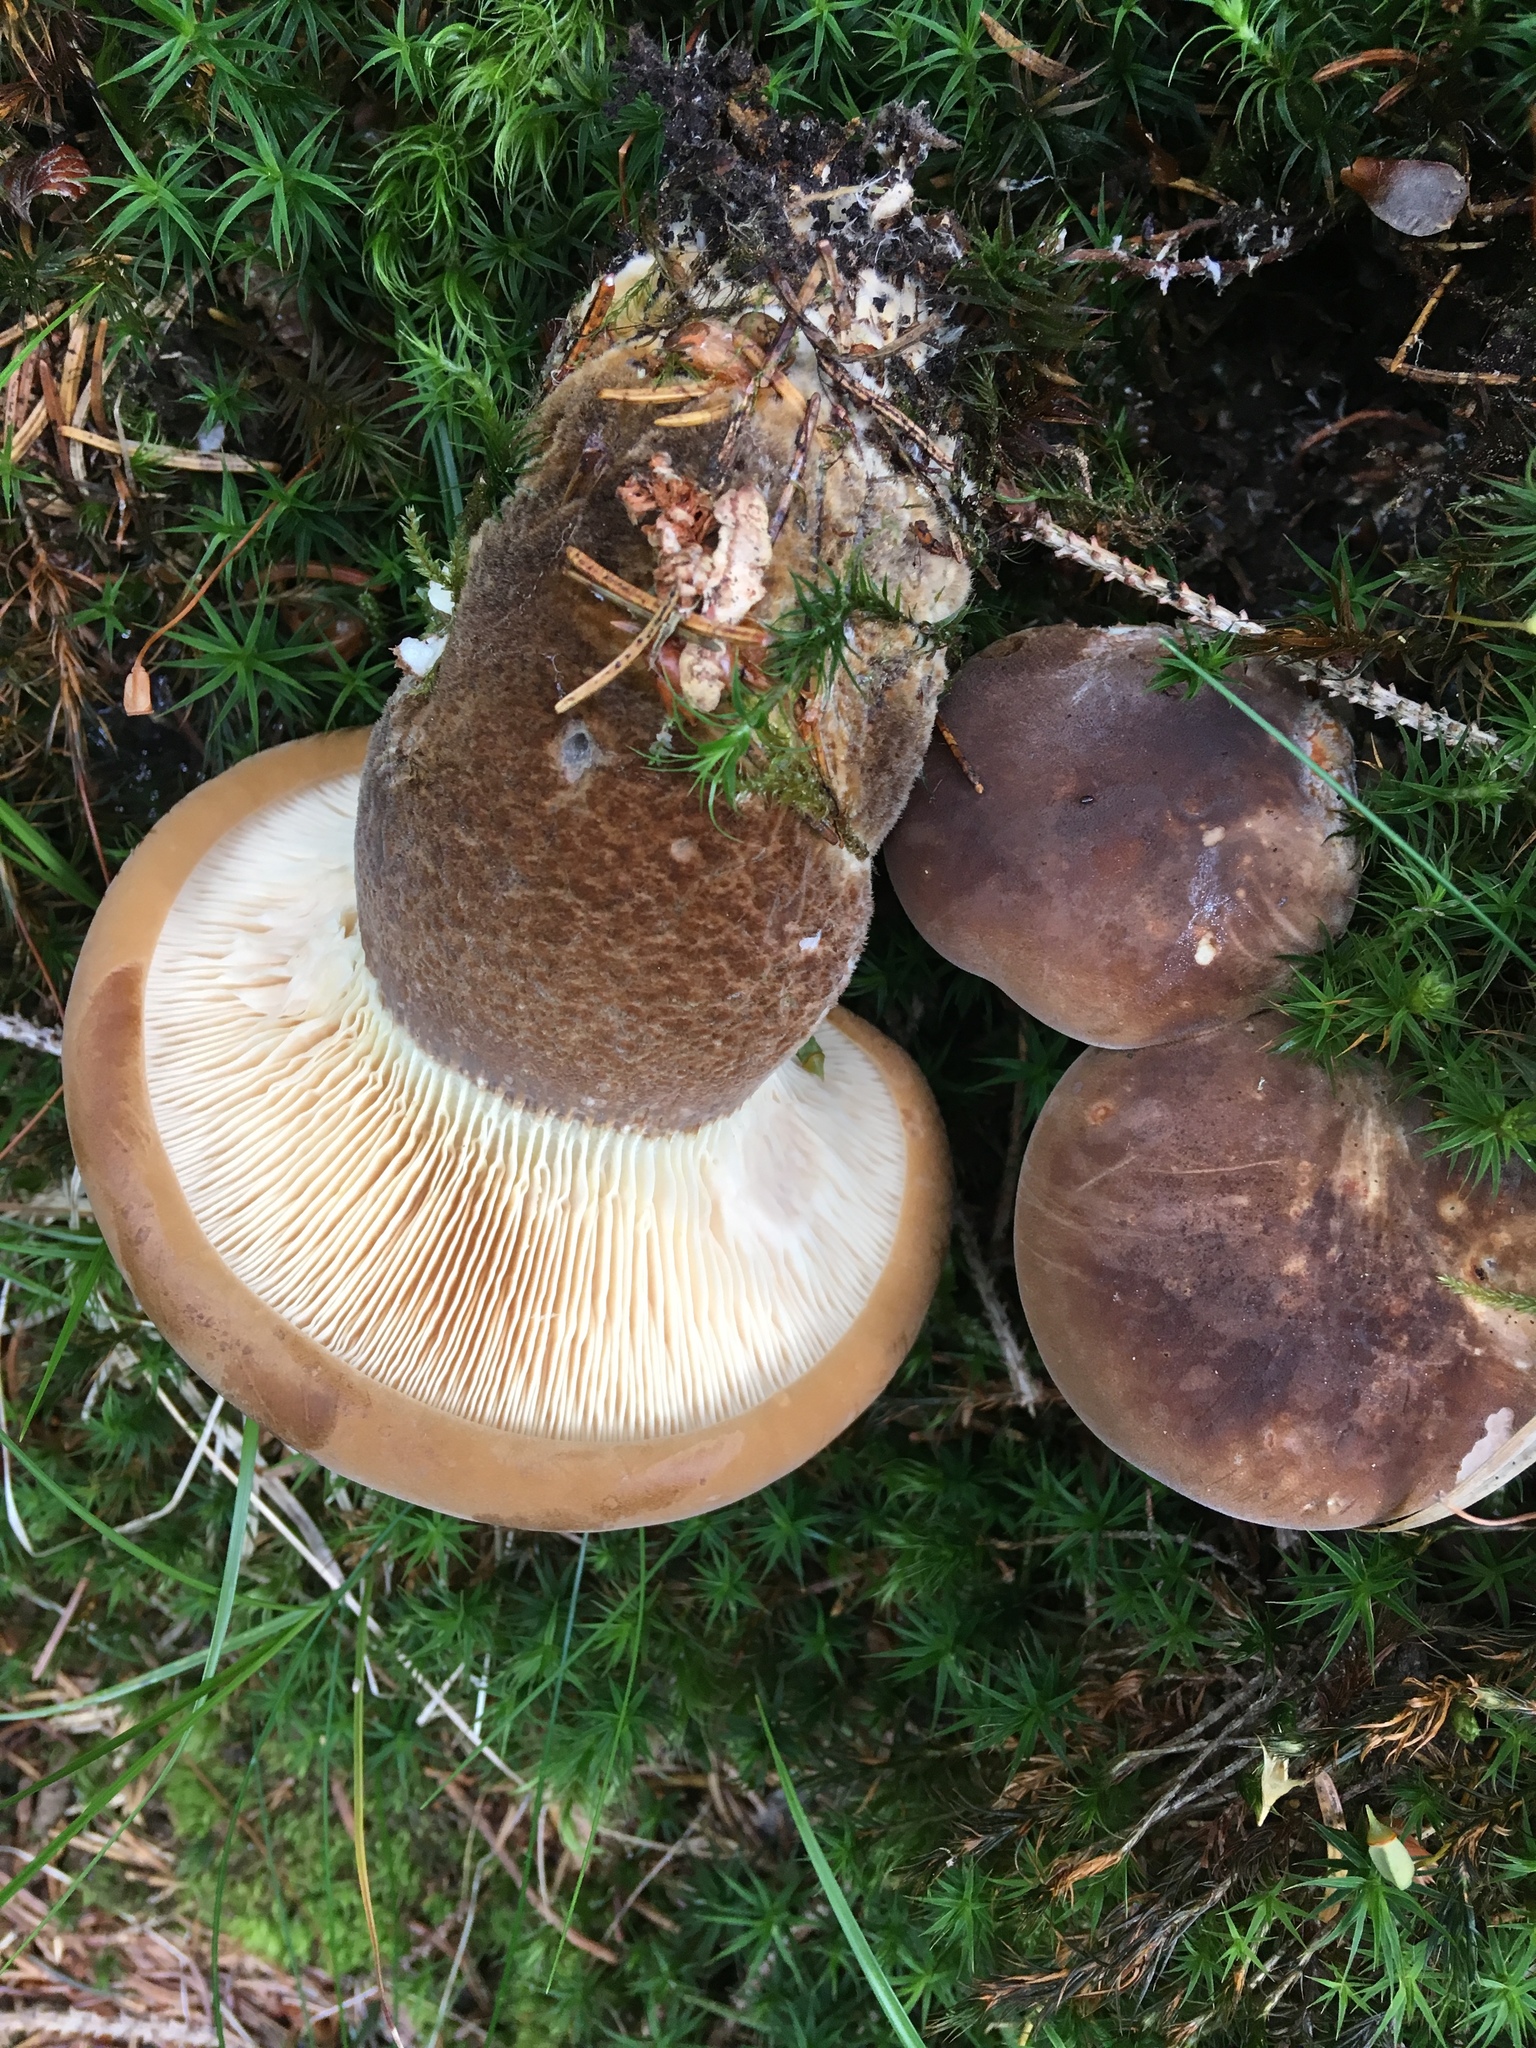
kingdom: Fungi
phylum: Basidiomycota
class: Agaricomycetes
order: Boletales
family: Tapinellaceae
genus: Tapinella
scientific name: Tapinella atrotomentosa
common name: Velvet rollrim
